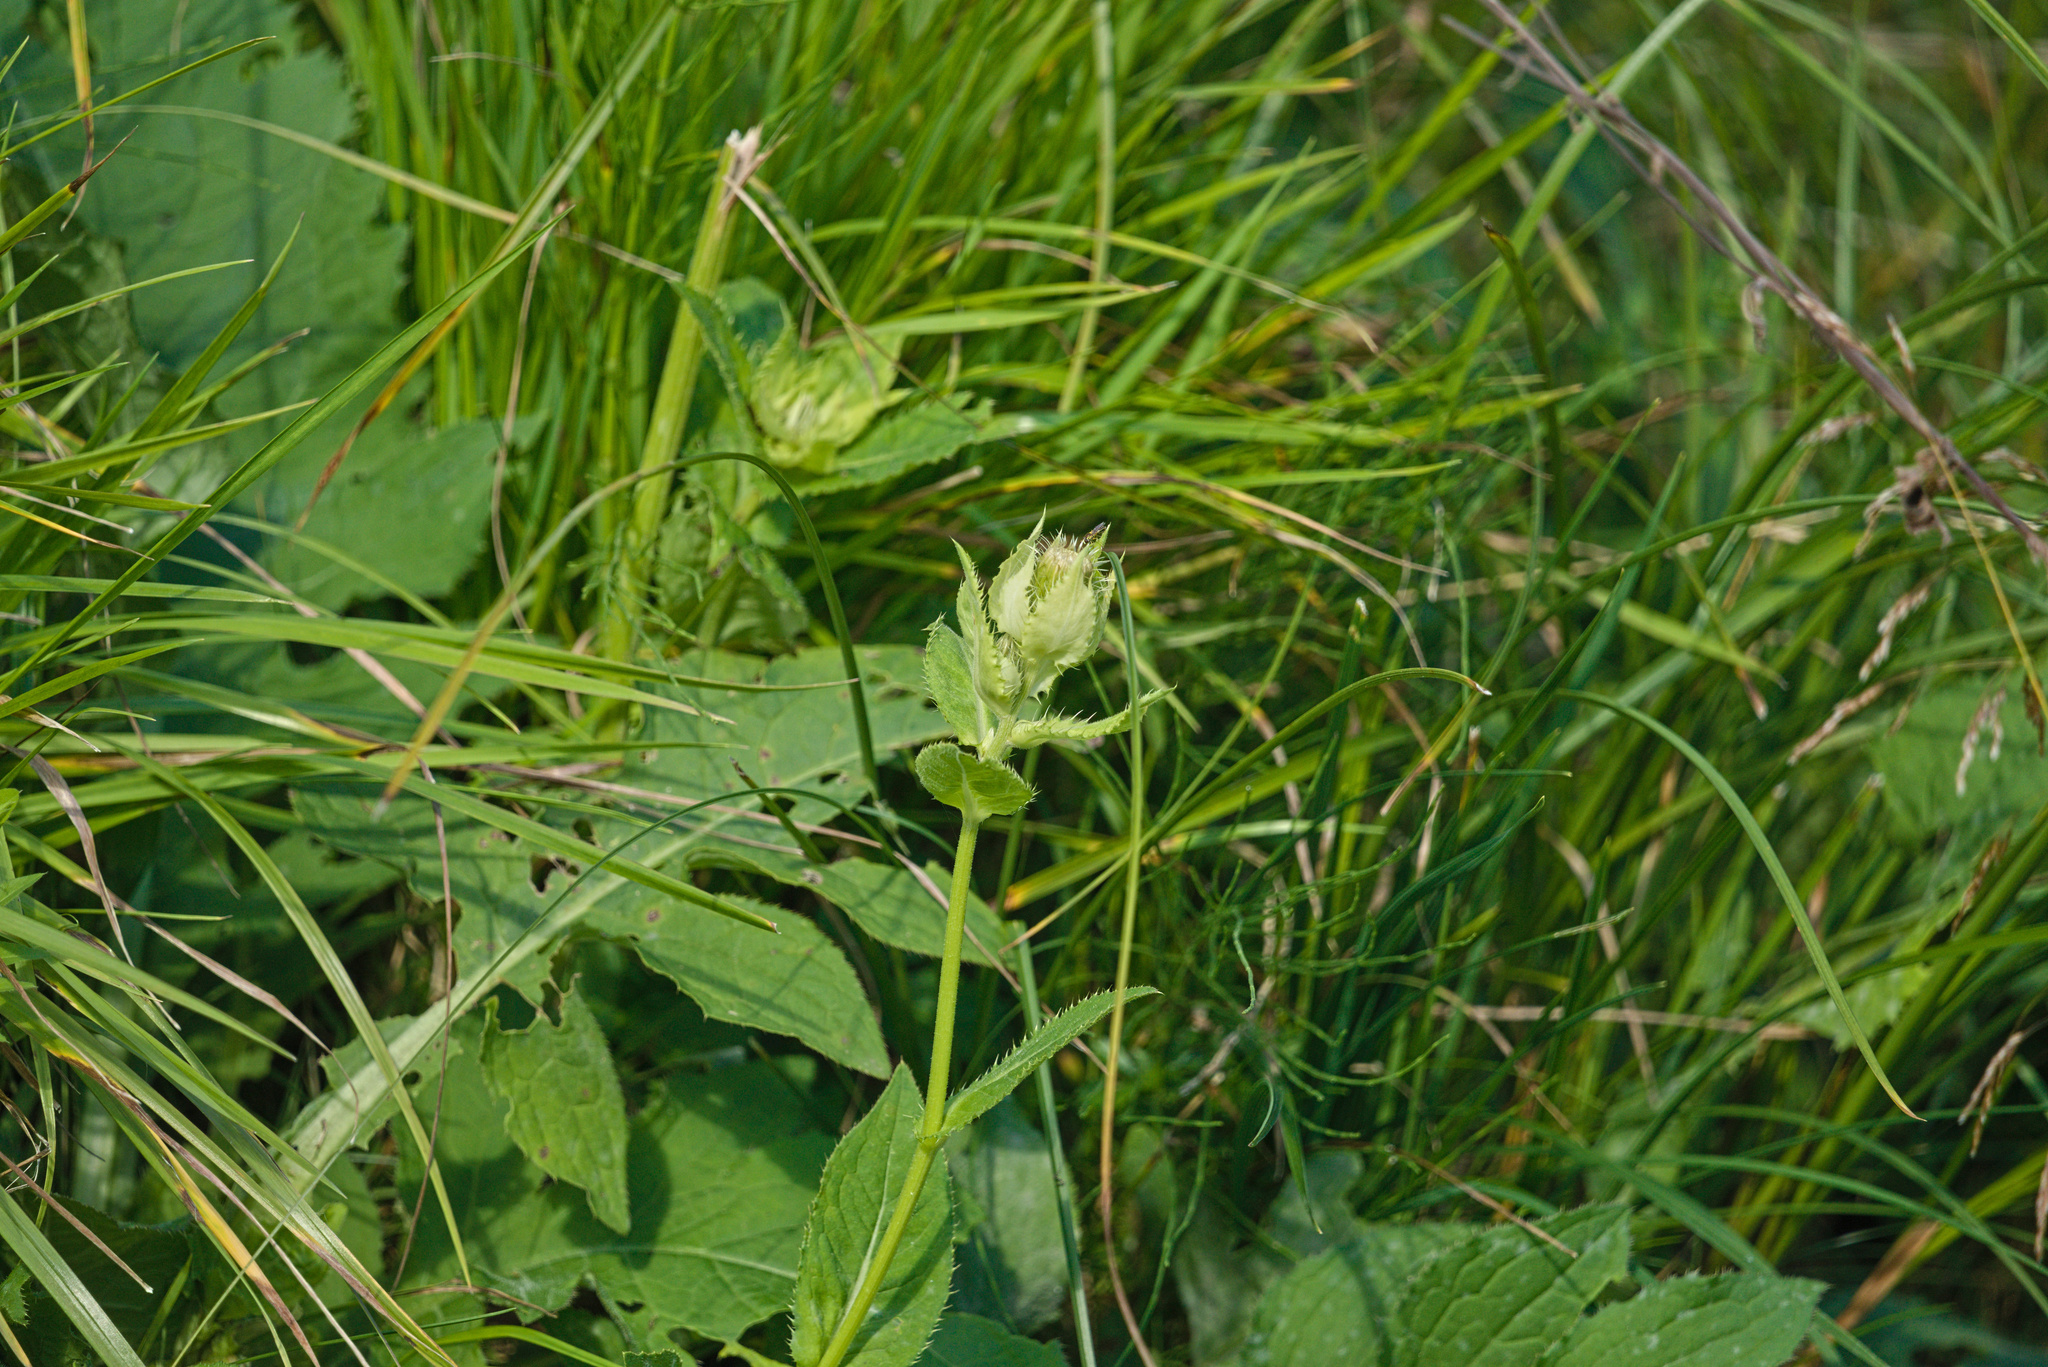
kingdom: Plantae
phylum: Tracheophyta
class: Magnoliopsida
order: Asterales
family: Asteraceae
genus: Cirsium
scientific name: Cirsium oleraceum
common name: Cabbage thistle
